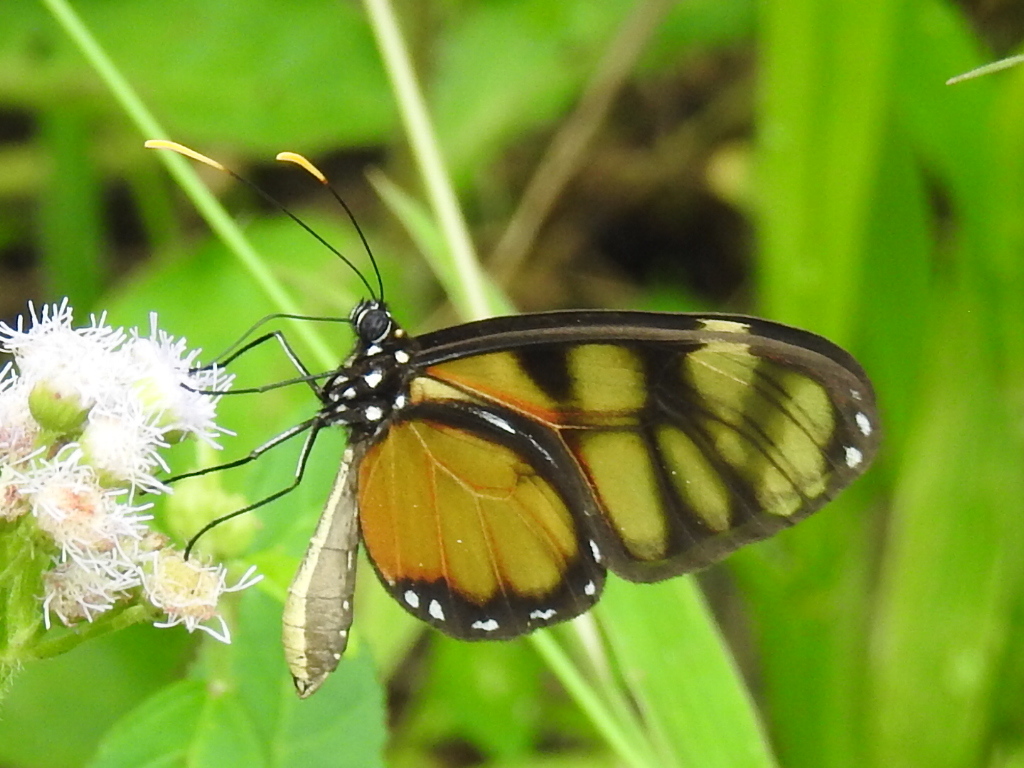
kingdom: Animalia
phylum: Arthropoda
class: Insecta
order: Lepidoptera
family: Nymphalidae
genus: Dircenna
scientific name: Dircenna dero
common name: Dero clearwing
